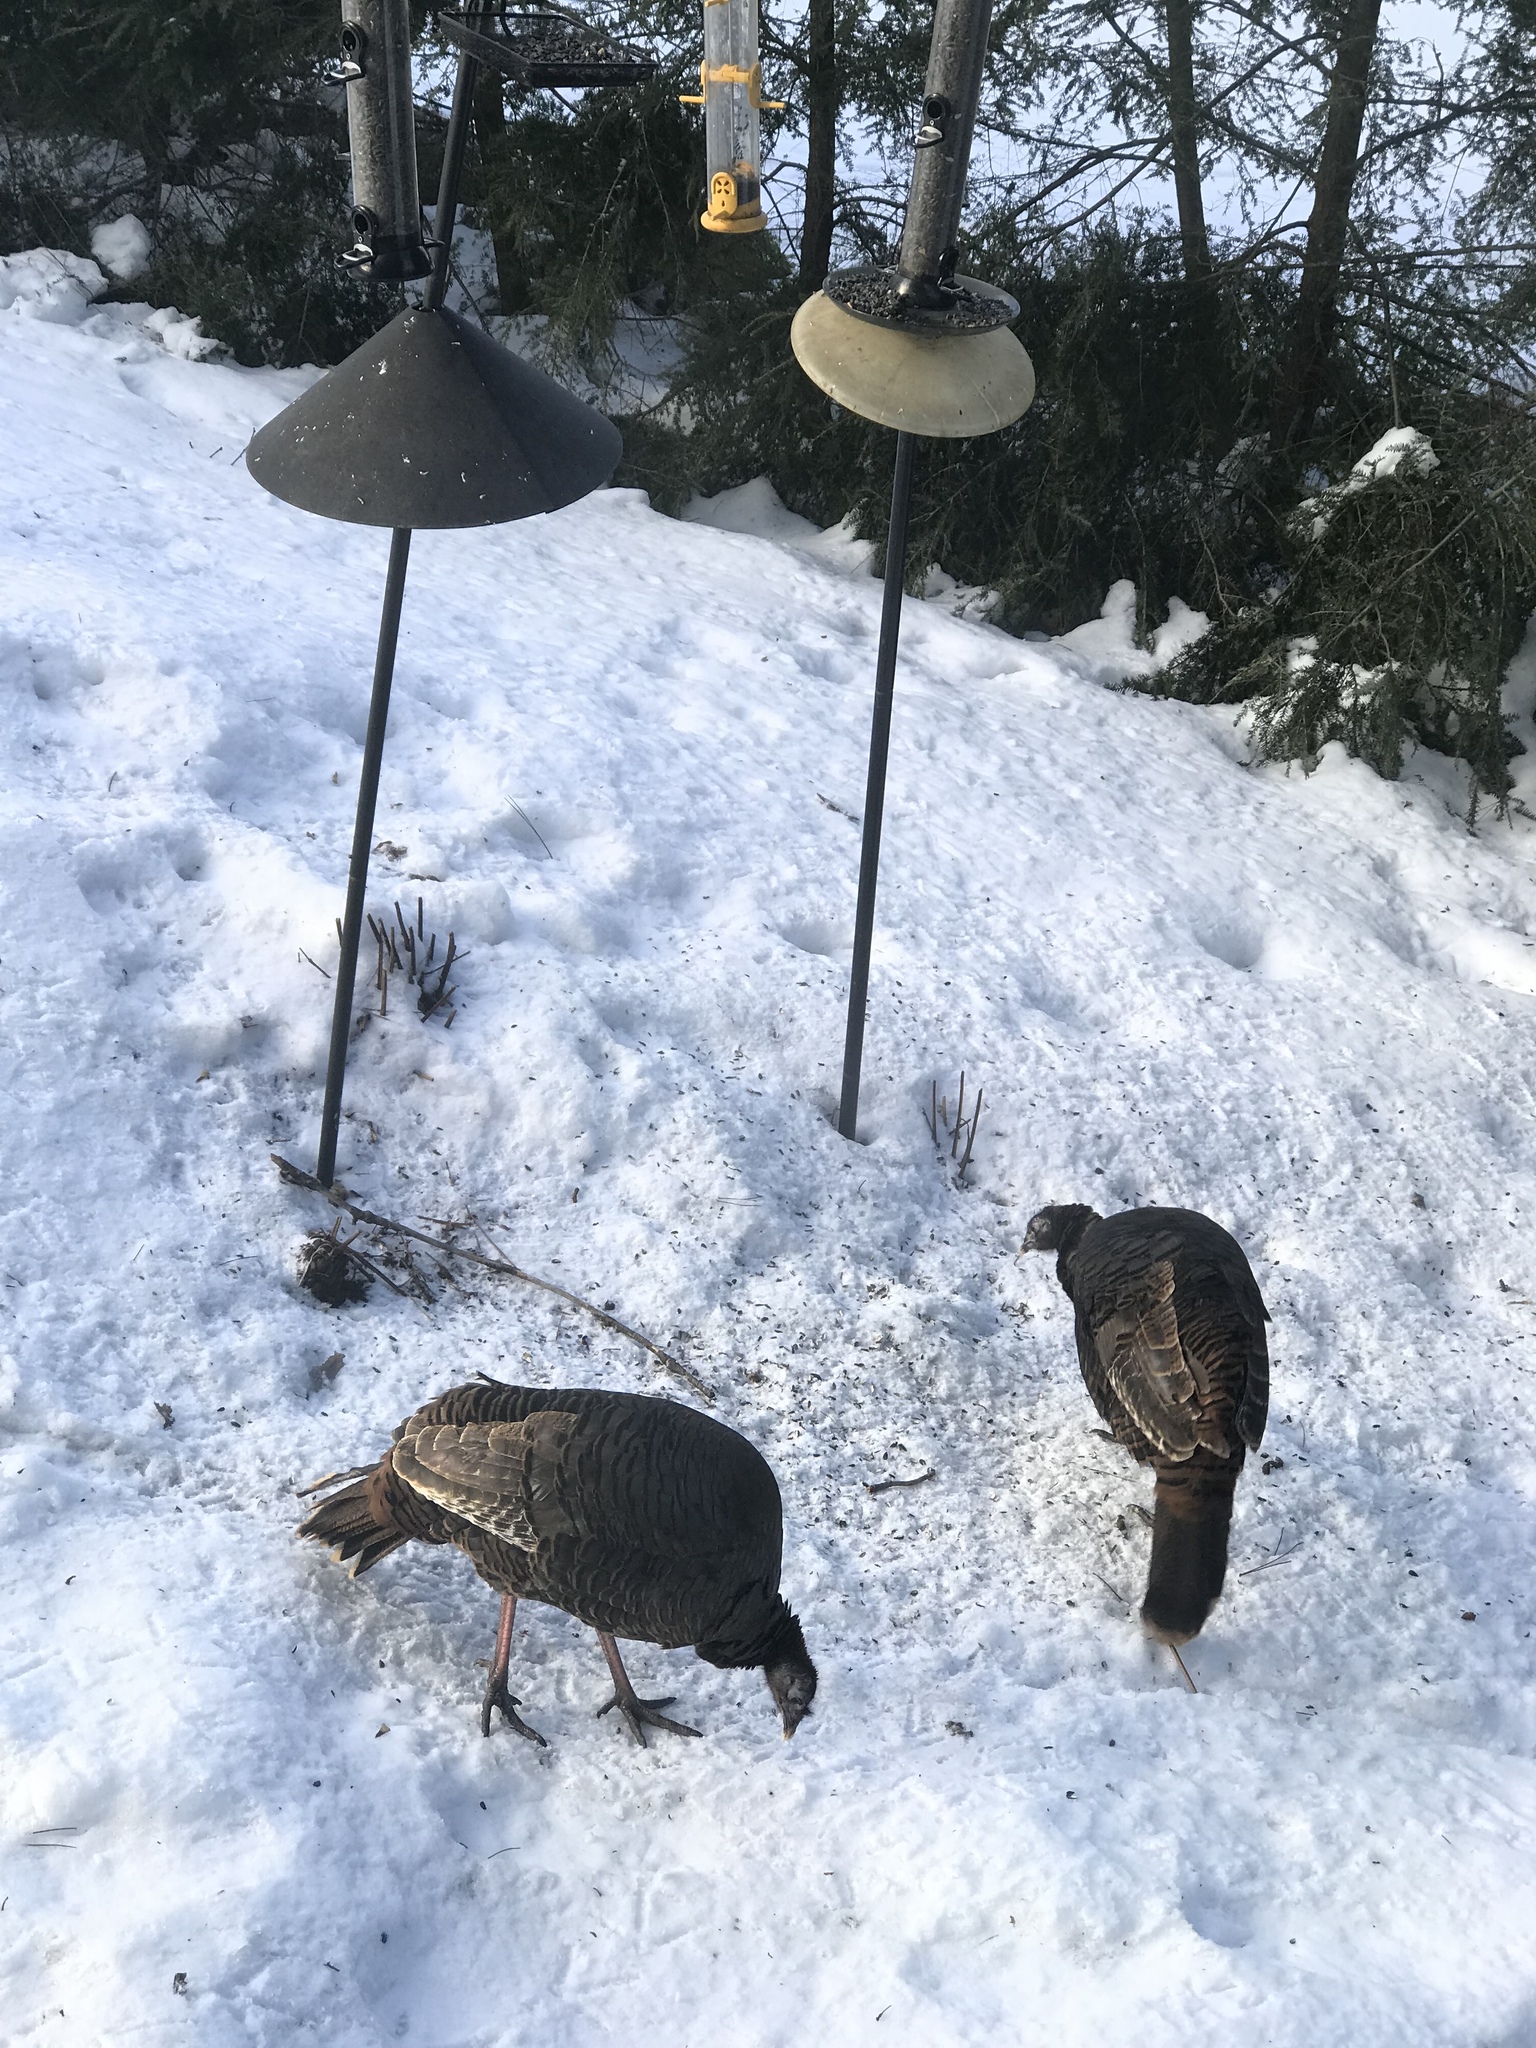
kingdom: Animalia
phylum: Chordata
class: Aves
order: Galliformes
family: Phasianidae
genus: Meleagris
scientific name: Meleagris gallopavo
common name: Wild turkey
